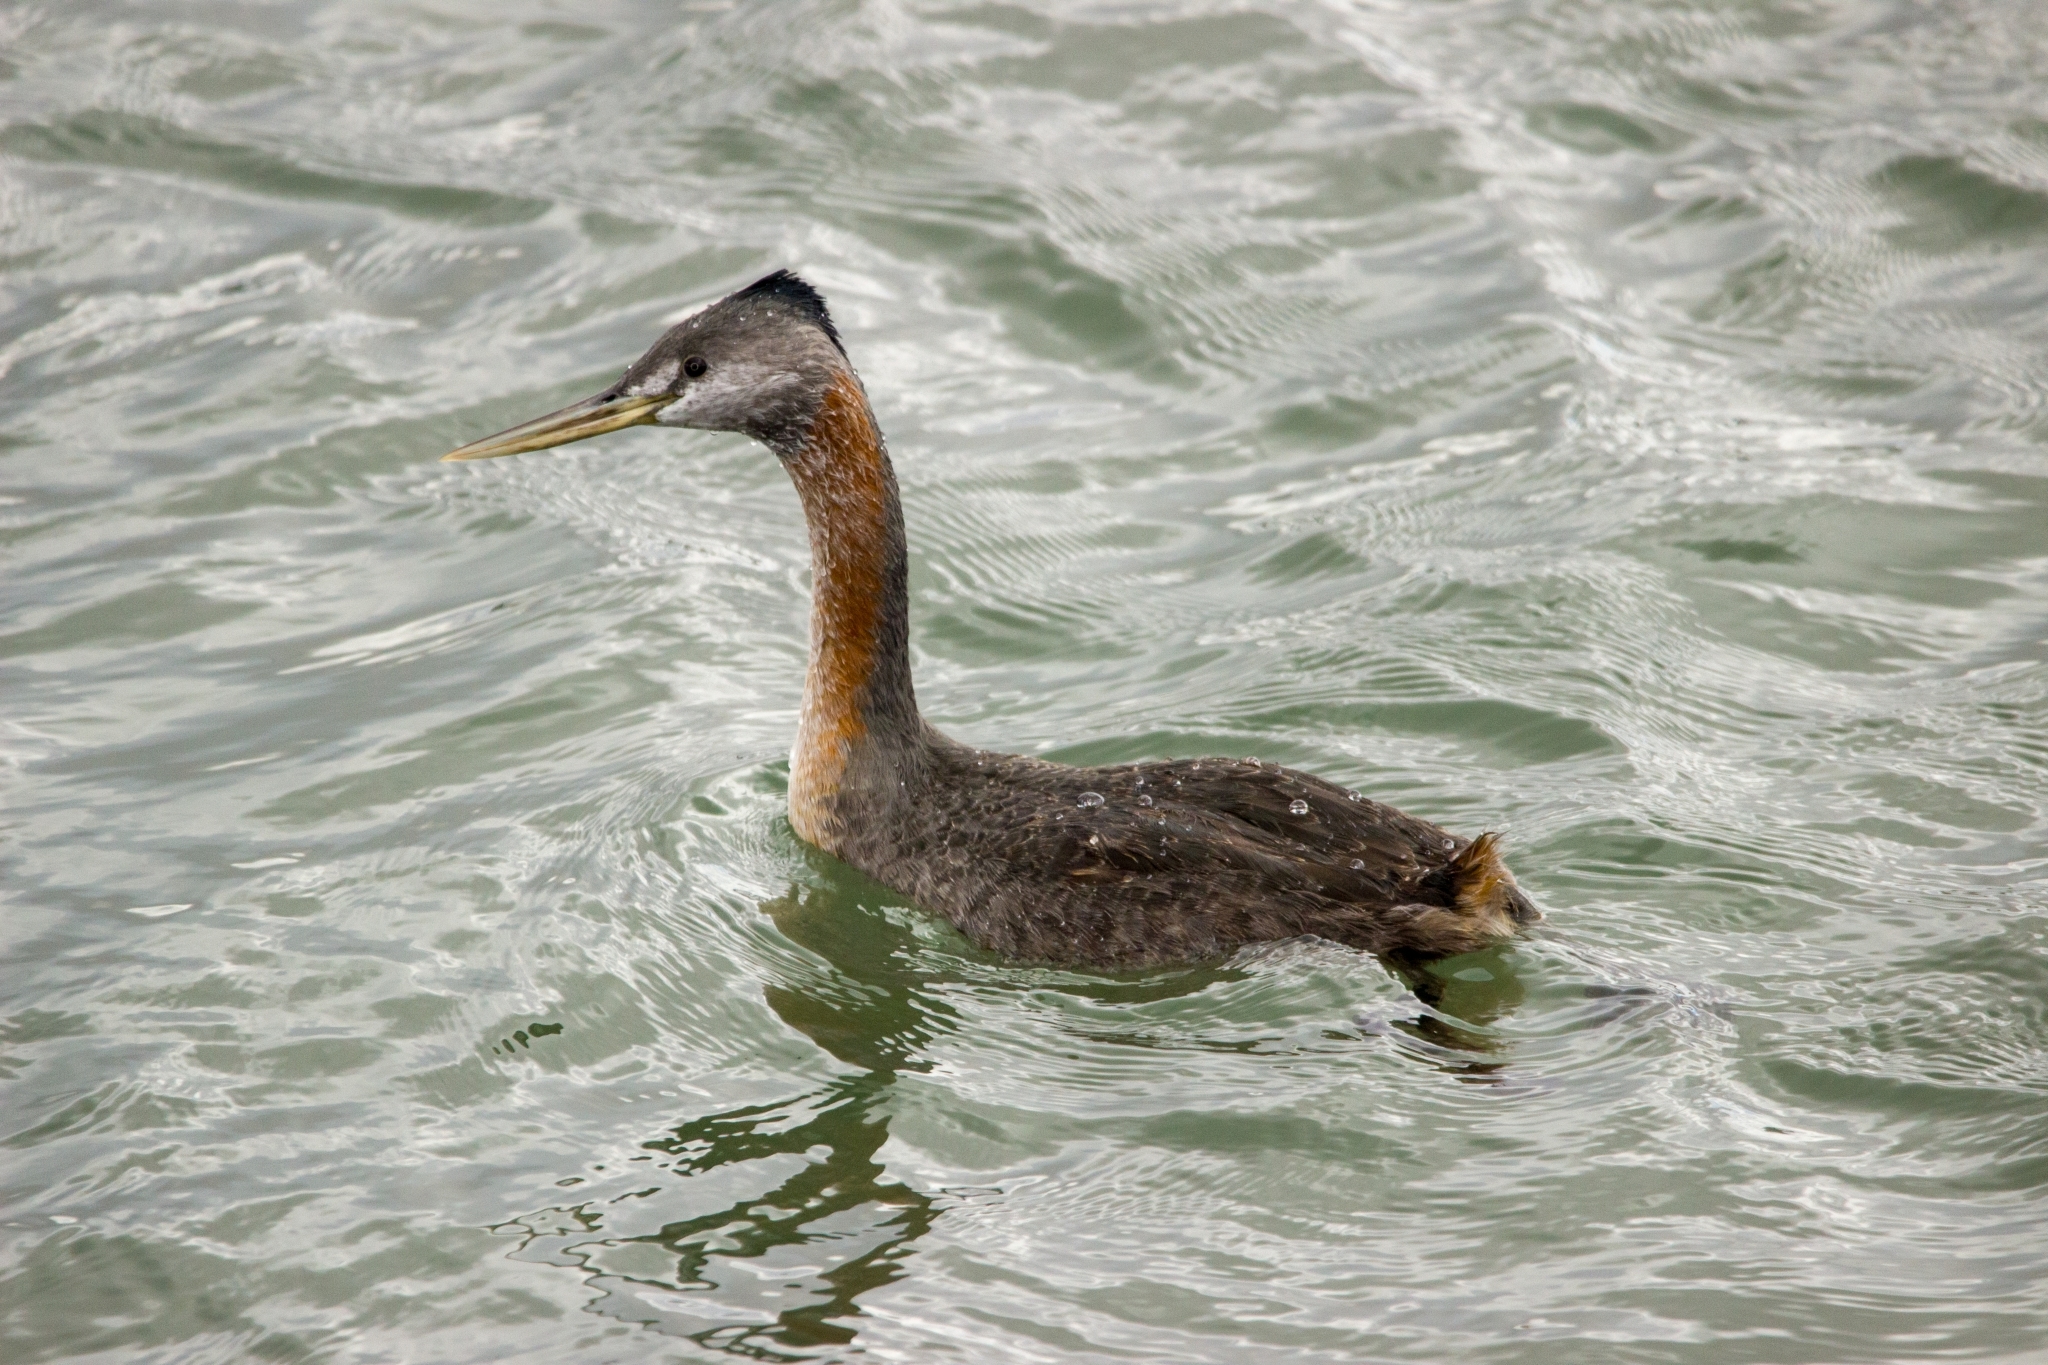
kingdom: Animalia
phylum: Chordata
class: Aves
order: Podicipediformes
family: Podicipedidae
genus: Podiceps
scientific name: Podiceps major
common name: Great grebe
